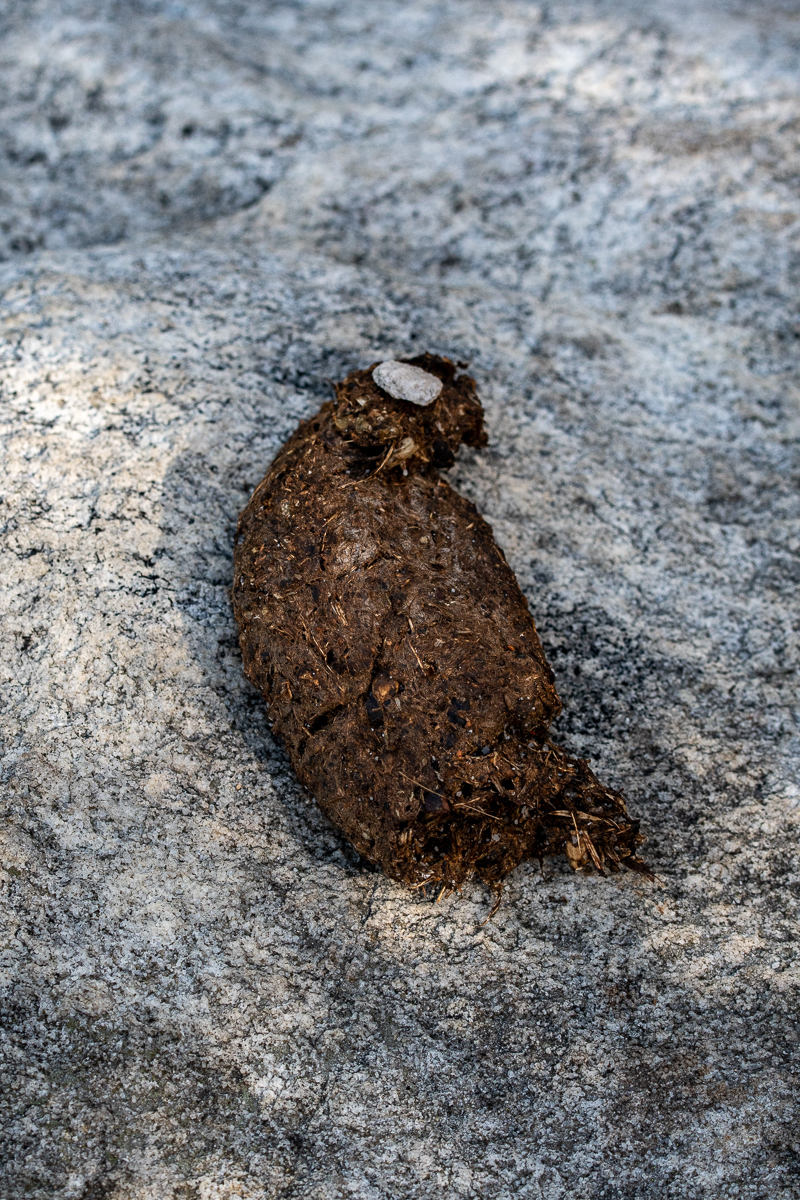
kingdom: Animalia
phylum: Chordata
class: Mammalia
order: Primates
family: Cercopithecidae
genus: Papio
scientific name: Papio ursinus
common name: Chacma baboon
